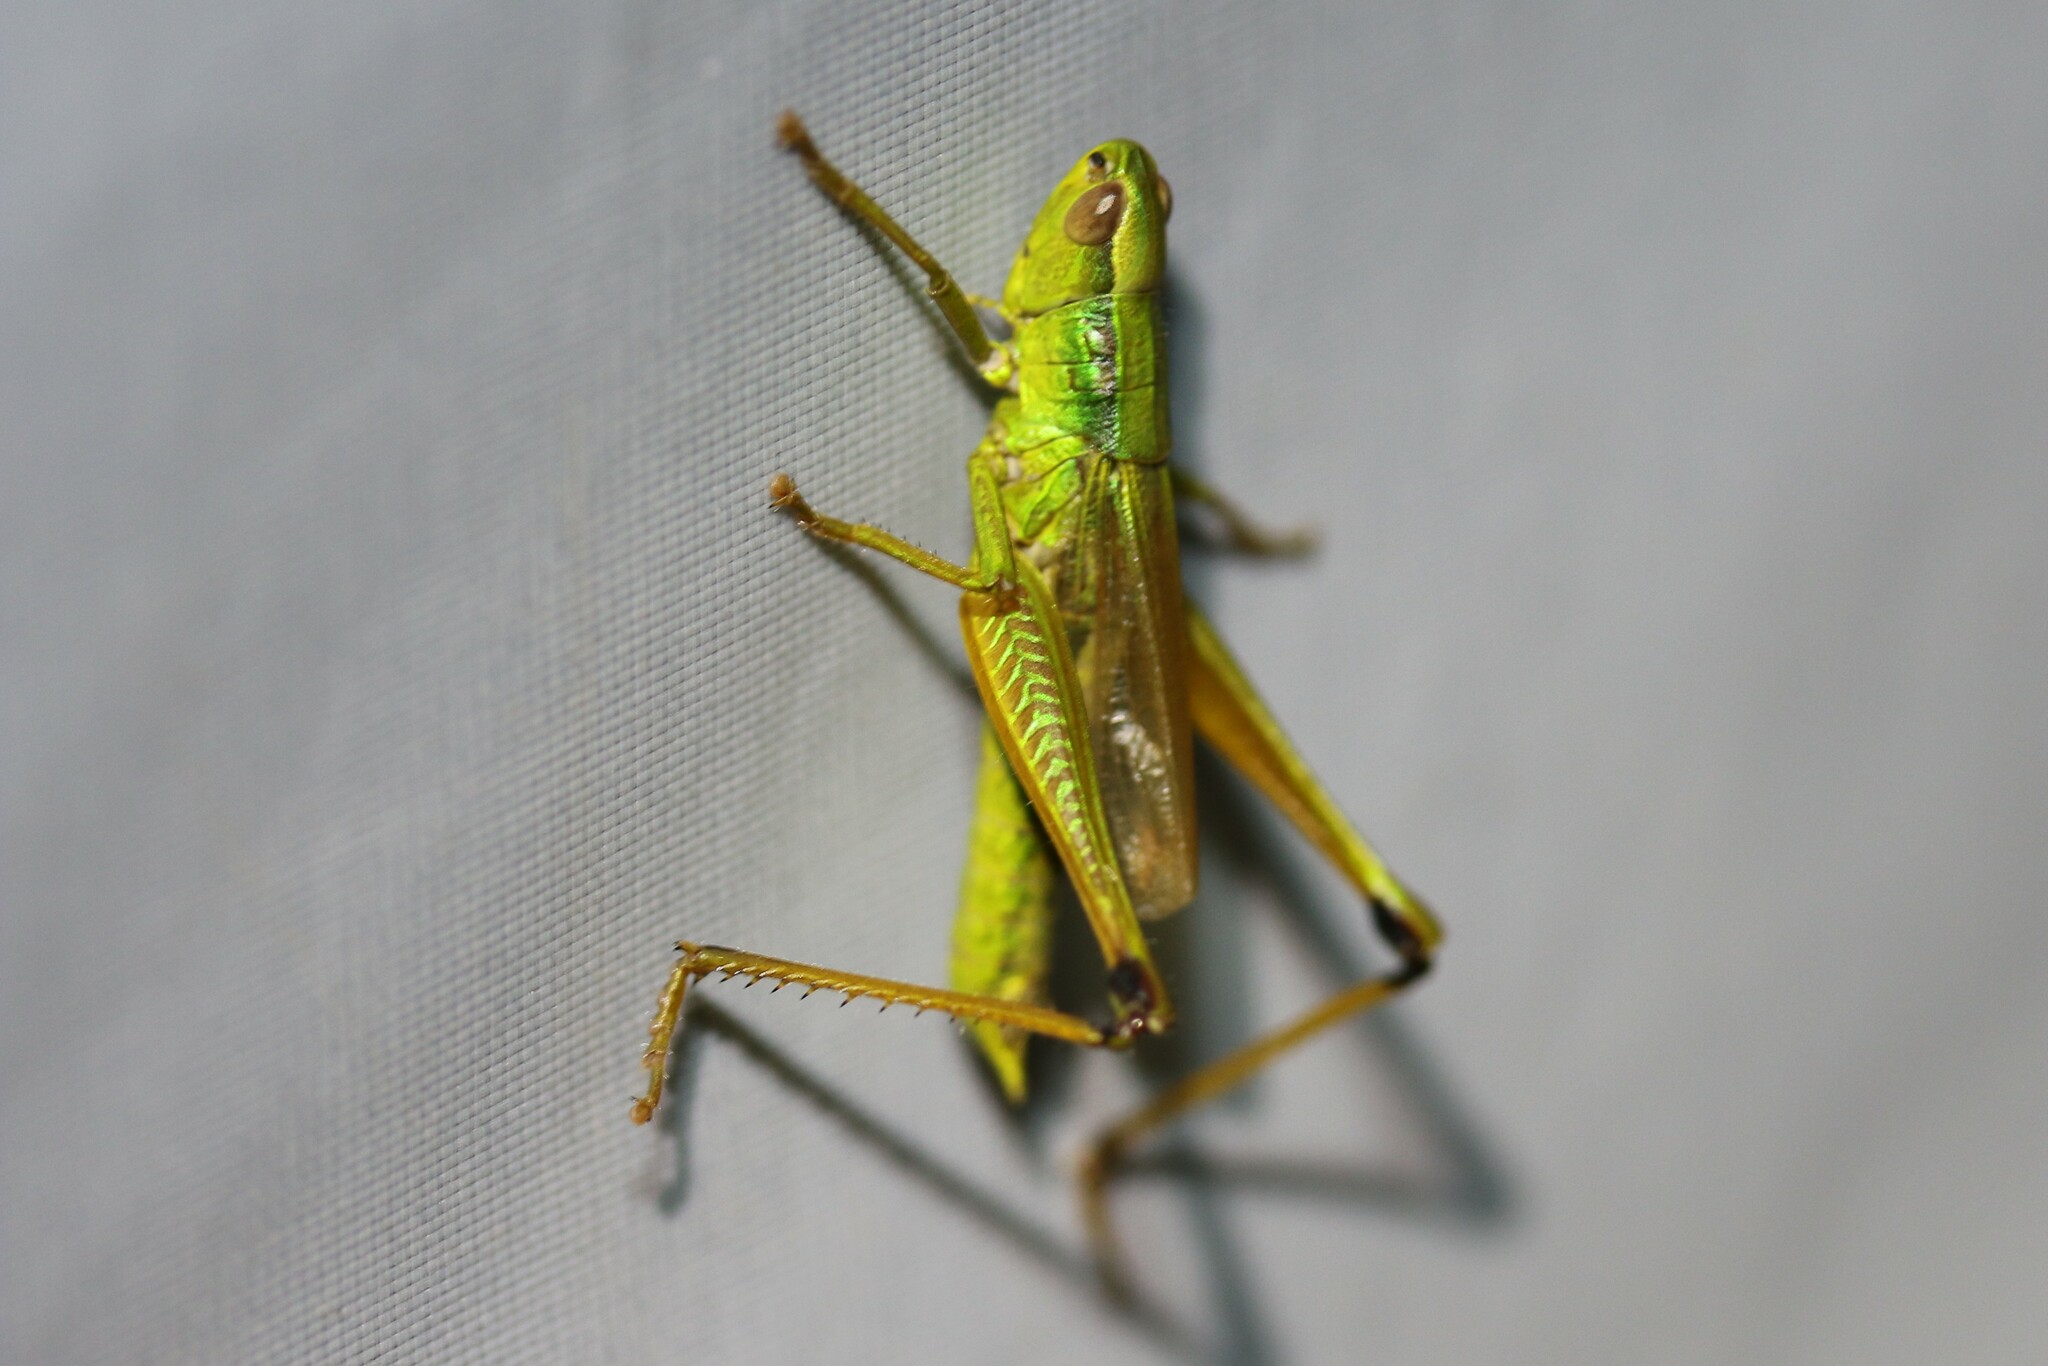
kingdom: Animalia
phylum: Arthropoda
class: Insecta
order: Orthoptera
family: Acrididae
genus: Chrysochraon
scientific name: Chrysochraon dispar
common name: Large gold grasshopper
